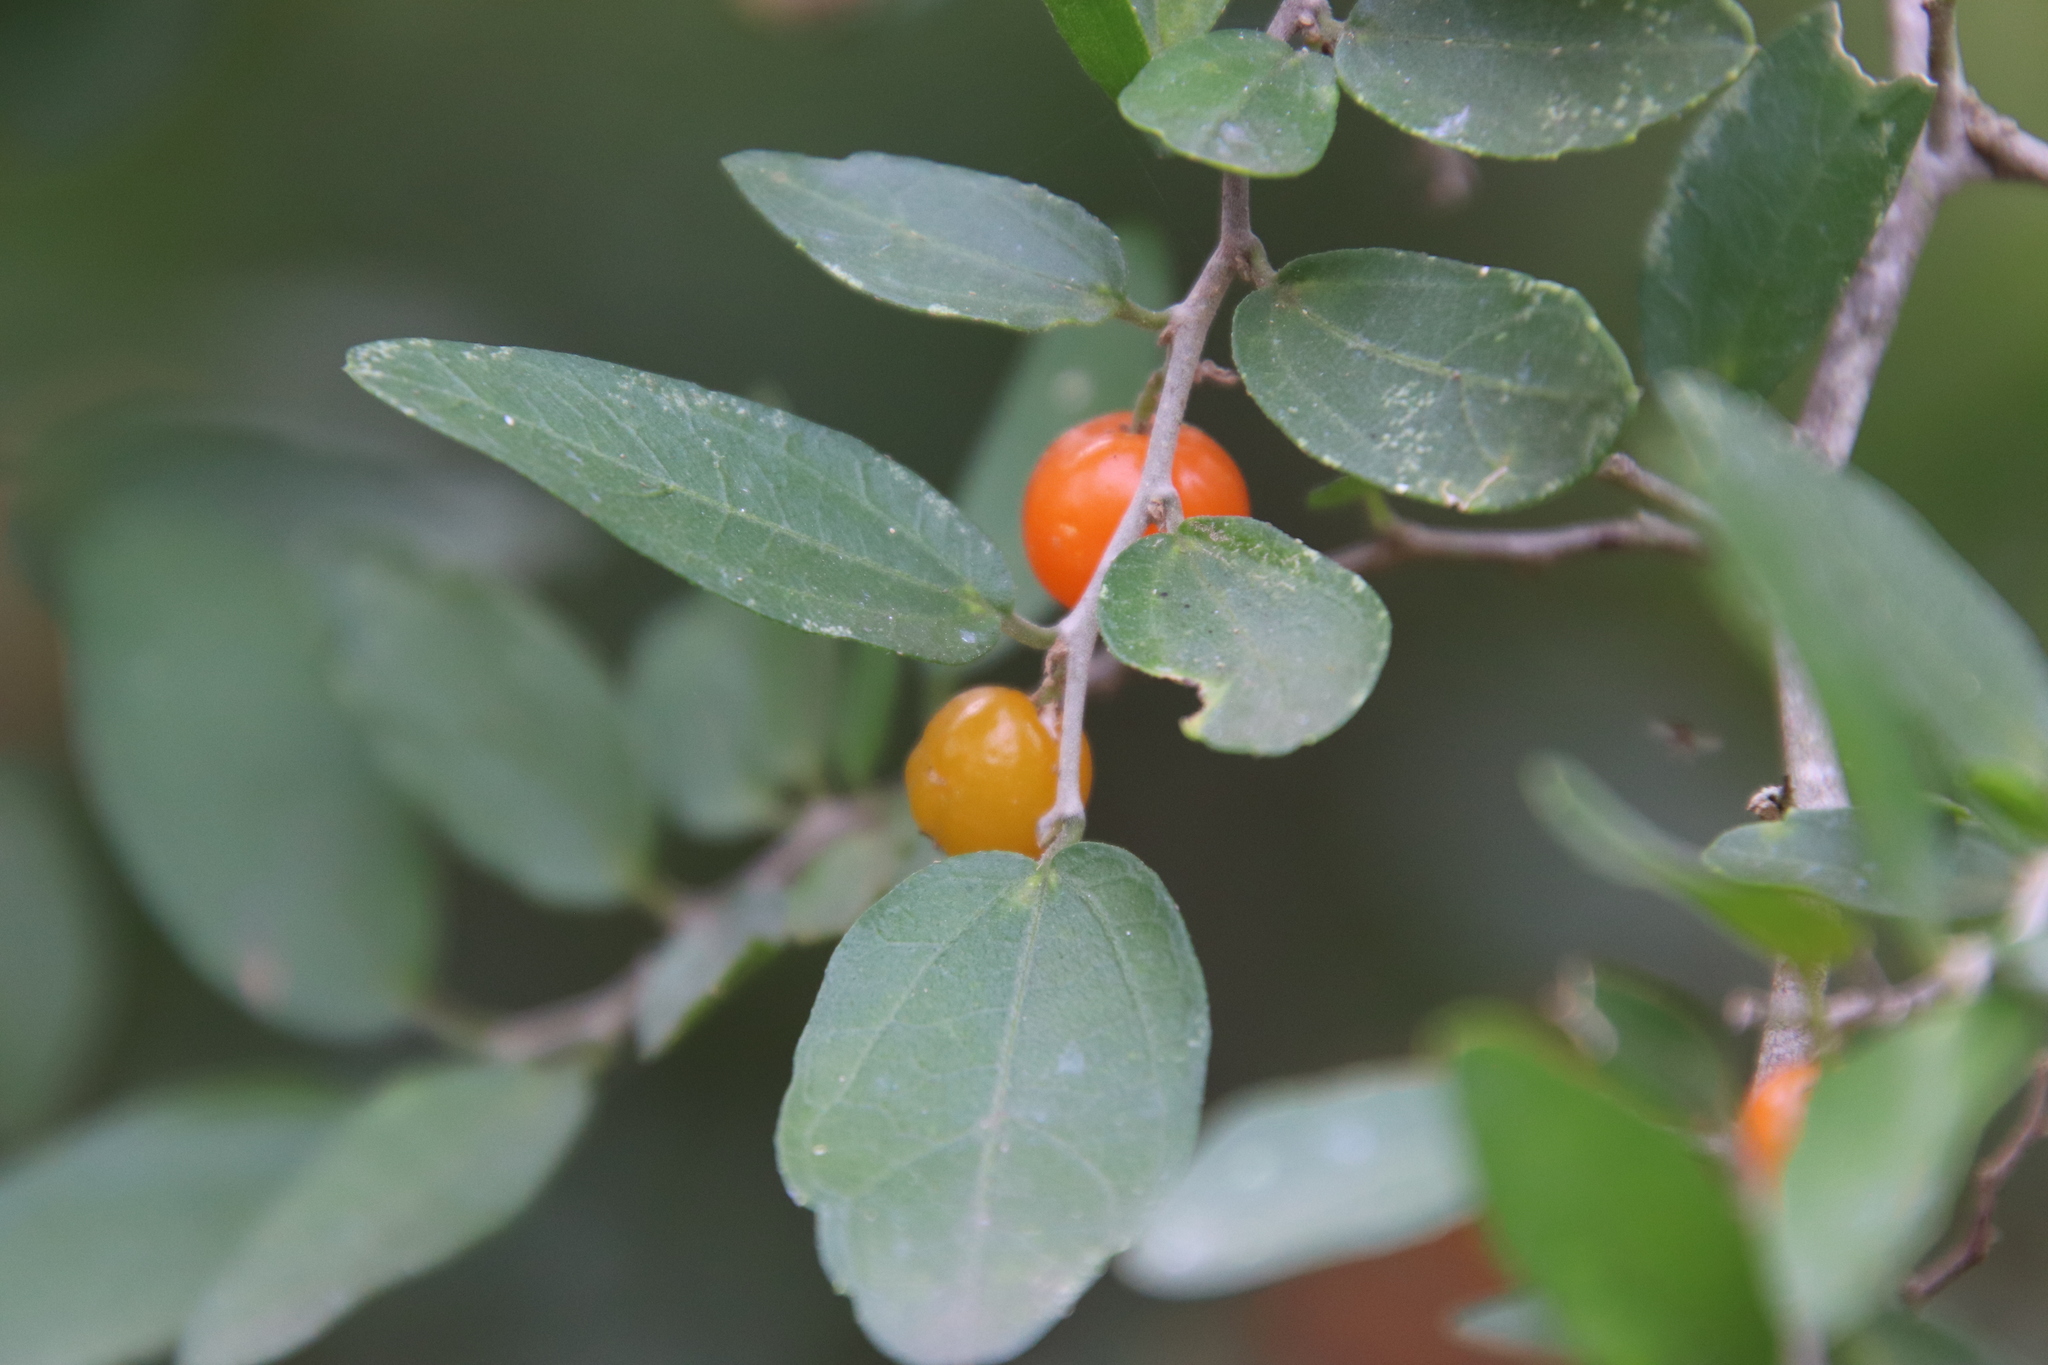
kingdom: Plantae
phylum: Tracheophyta
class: Magnoliopsida
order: Rosales
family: Cannabaceae
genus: Celtis
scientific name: Celtis pallida
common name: Desert hackberry
